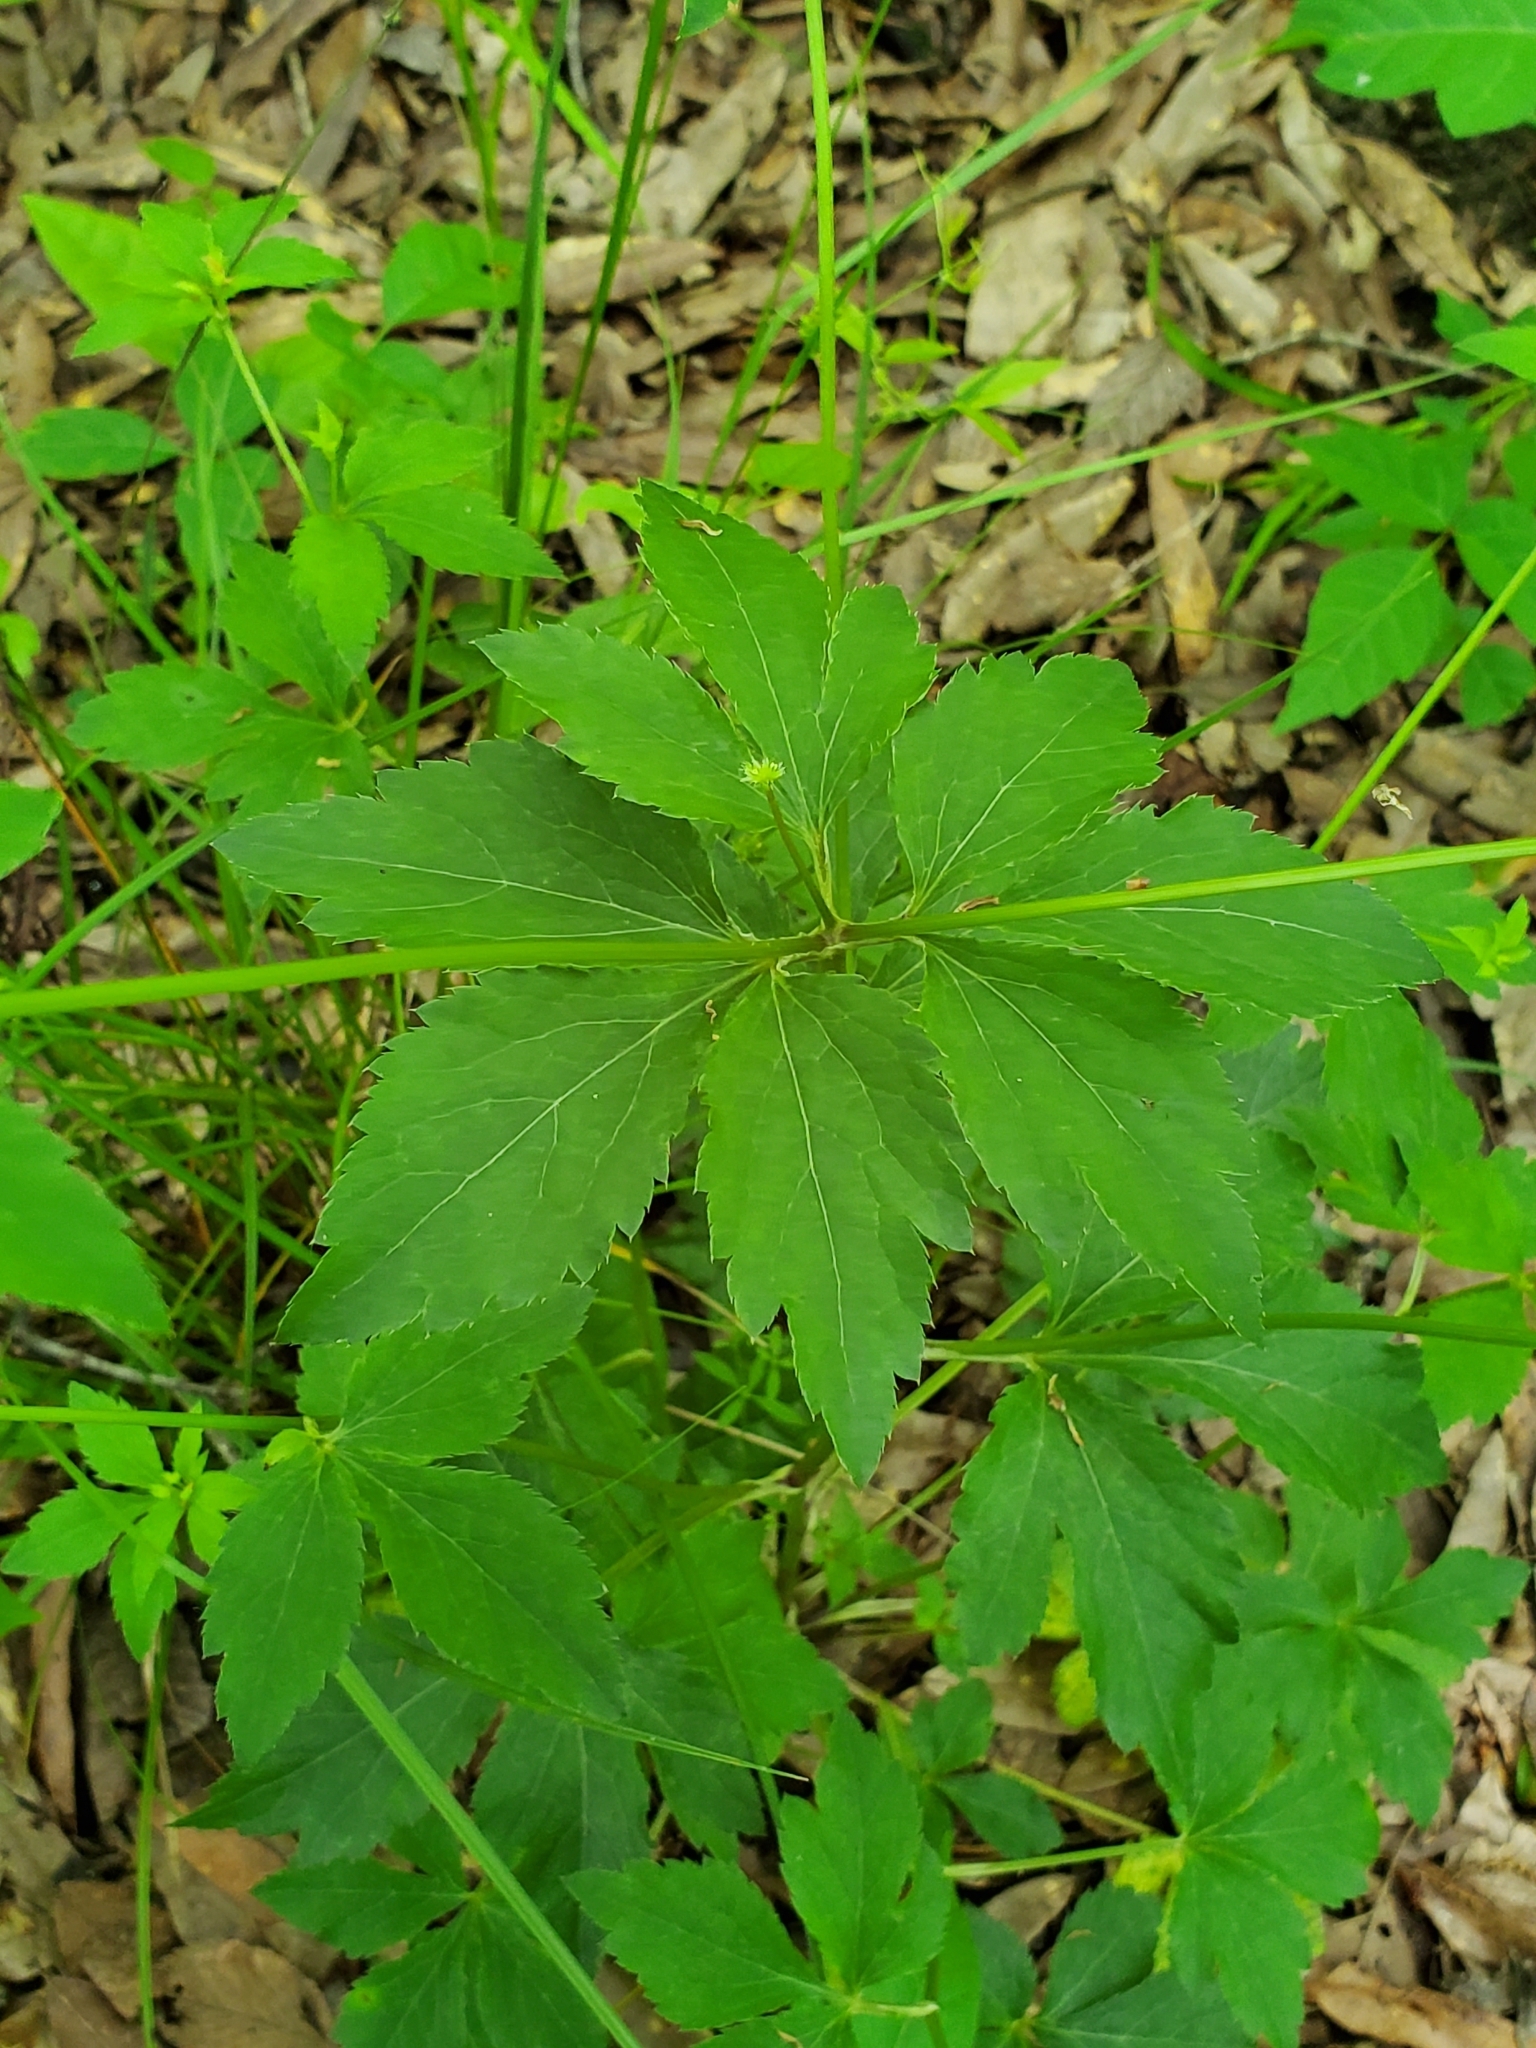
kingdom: Plantae
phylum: Tracheophyta
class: Magnoliopsida
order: Apiales
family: Apiaceae
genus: Sanicula
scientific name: Sanicula canadensis
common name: Canada sanicle
